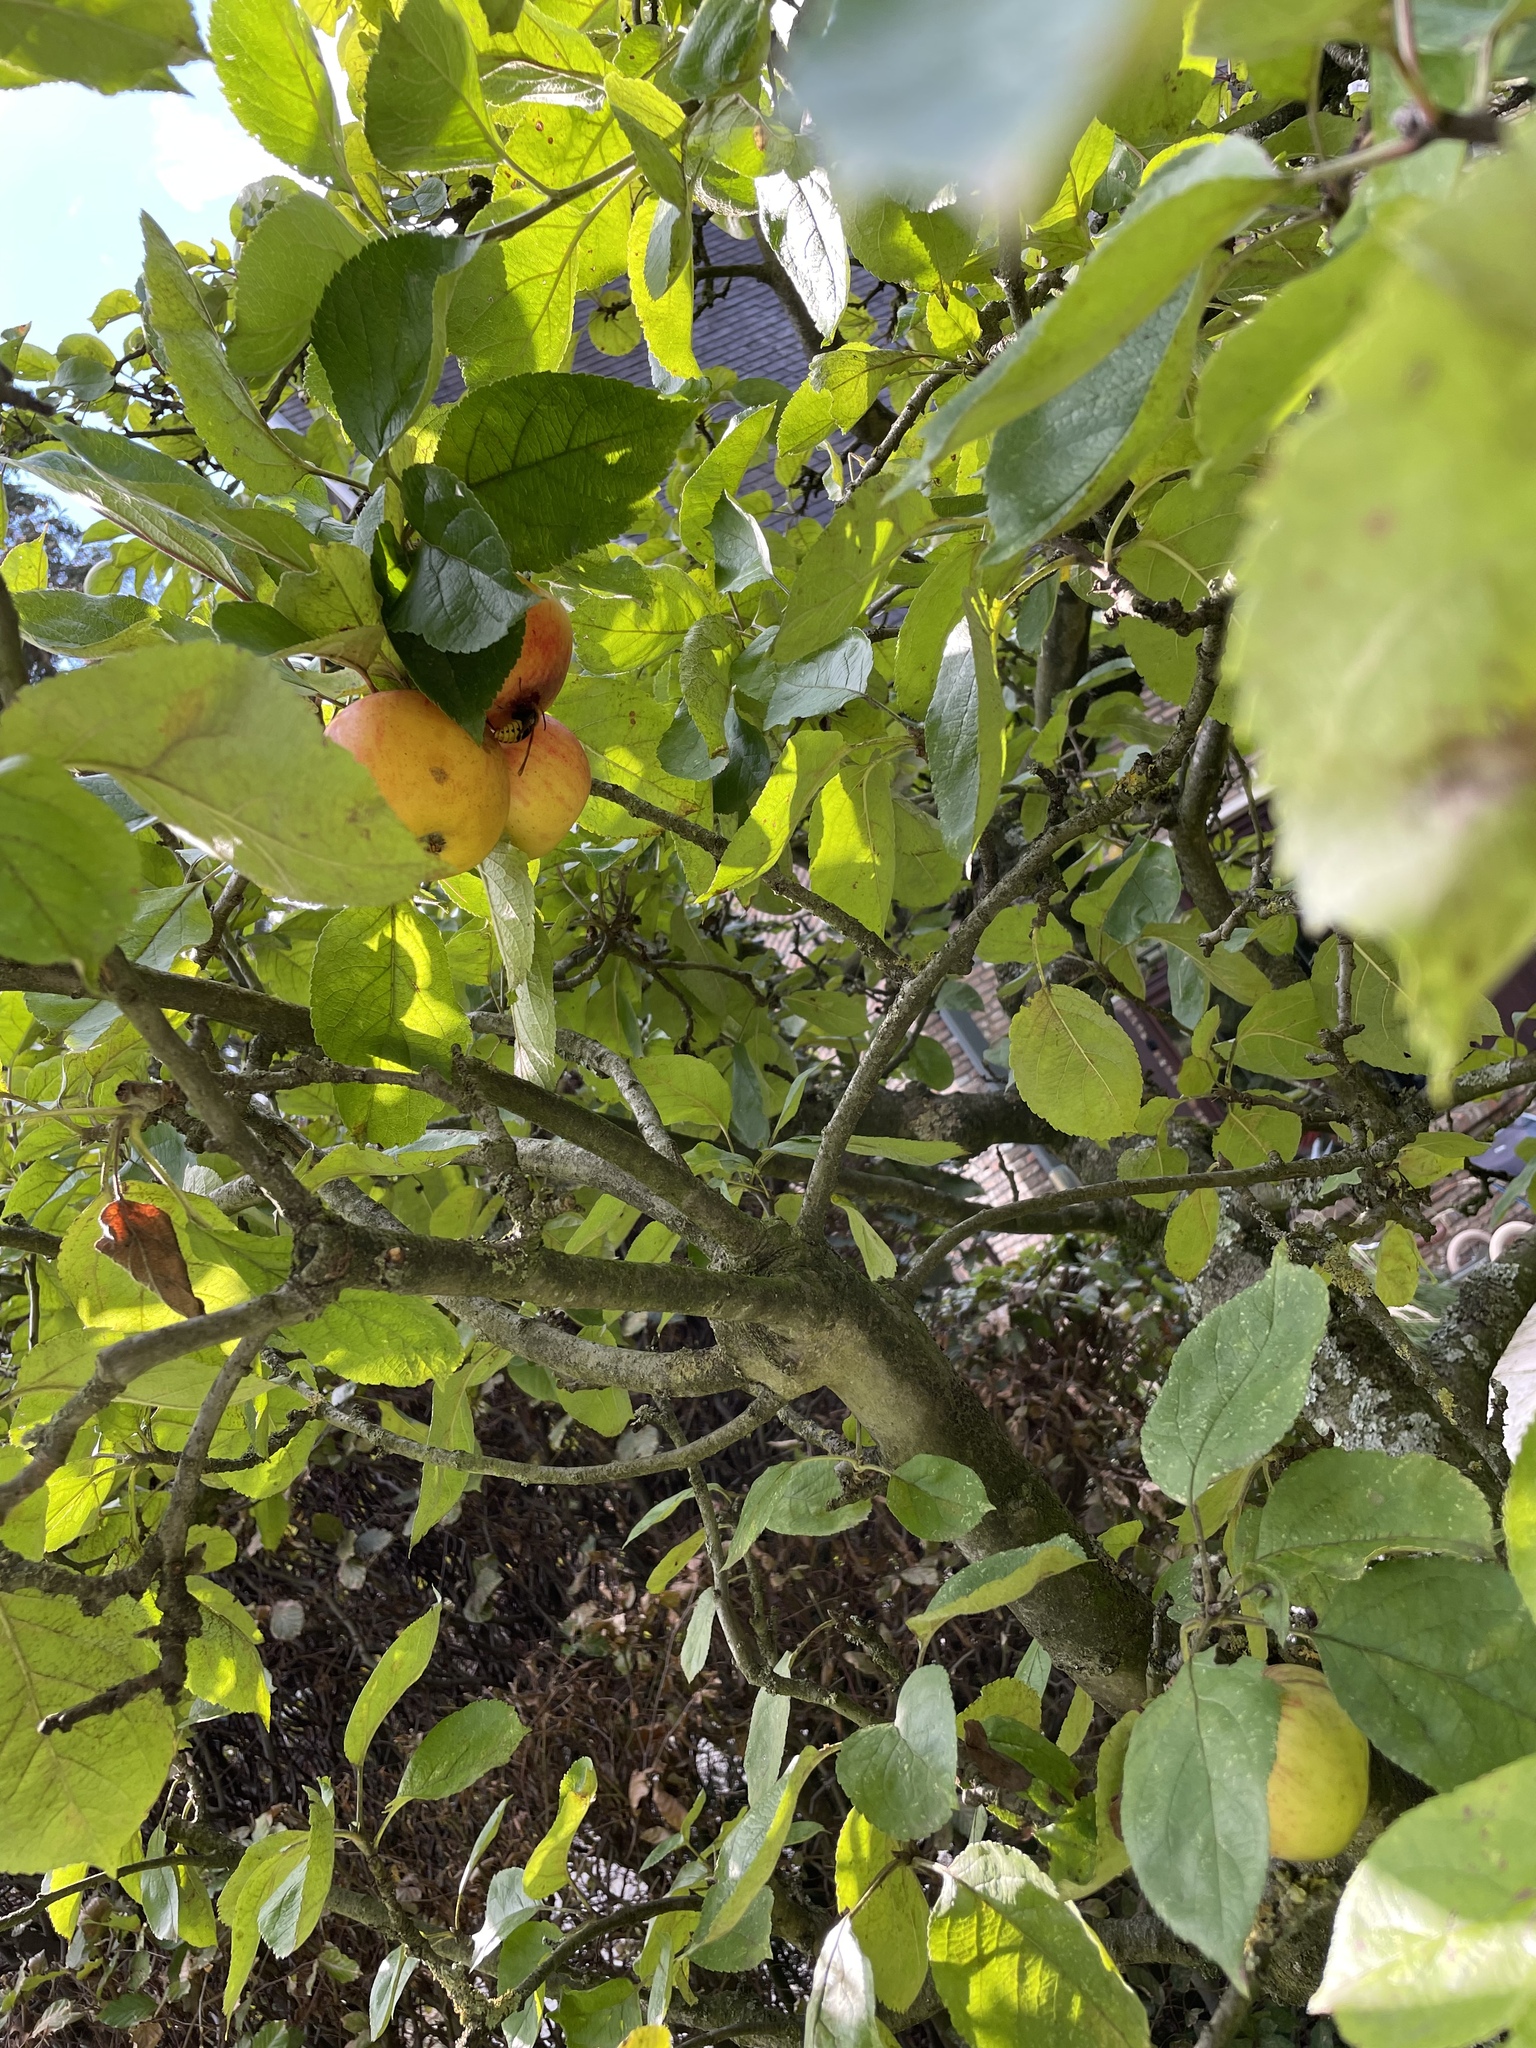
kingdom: Animalia
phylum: Arthropoda
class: Insecta
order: Hymenoptera
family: Vespidae
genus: Vespa
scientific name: Vespa crabro
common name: Hornet
